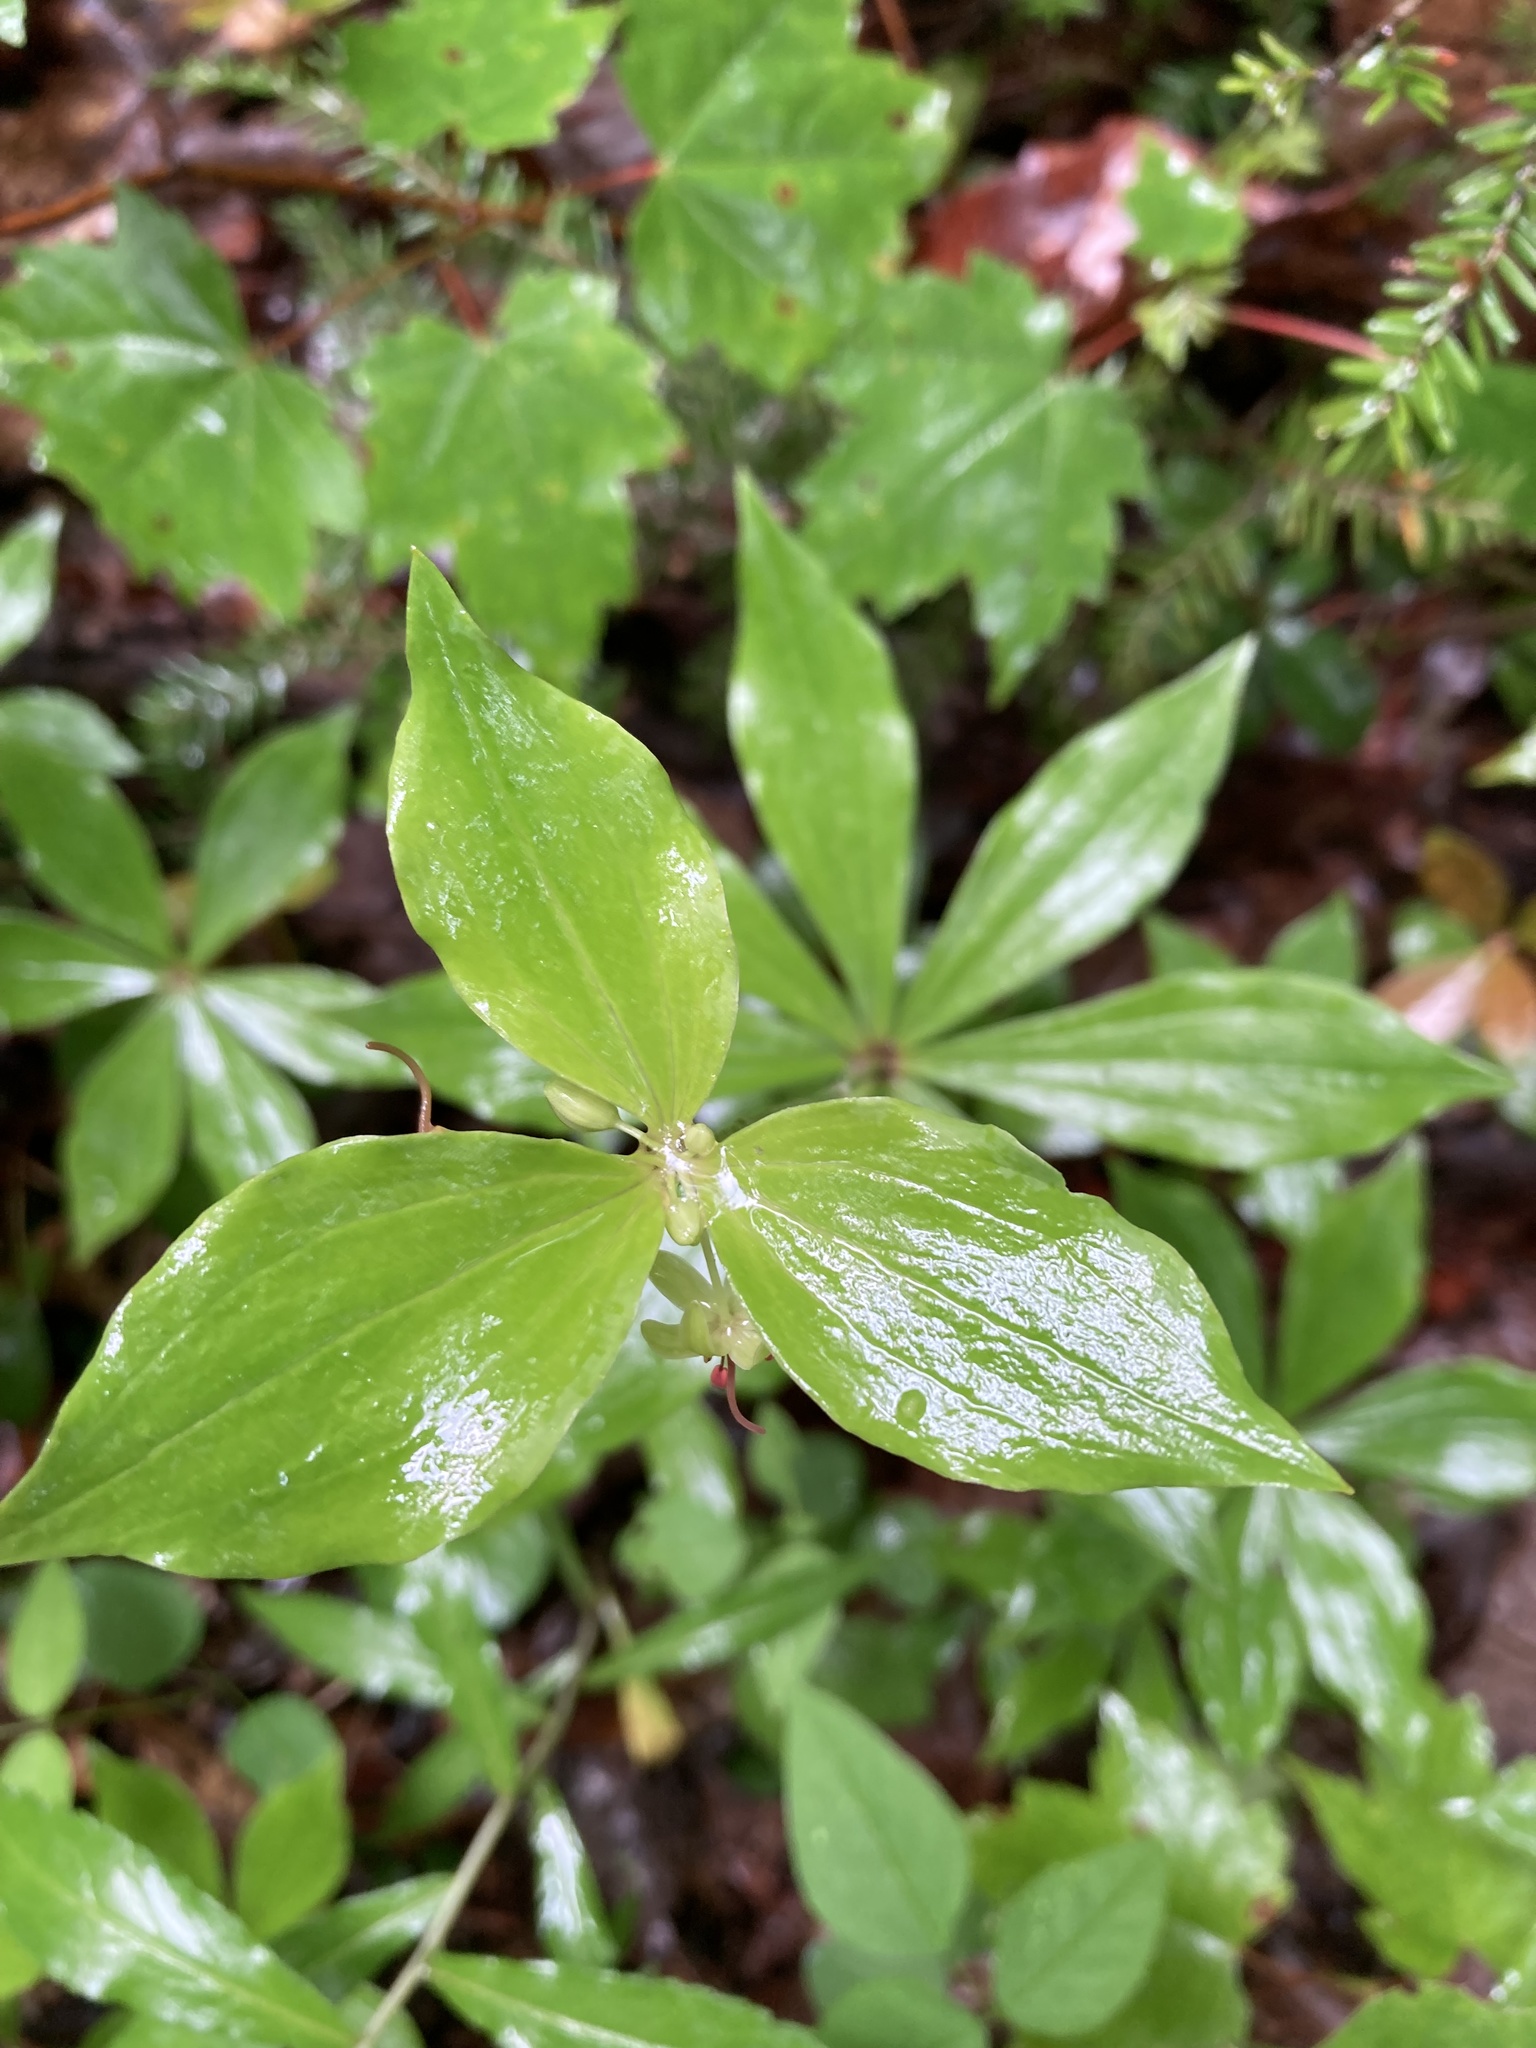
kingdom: Plantae
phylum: Tracheophyta
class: Liliopsida
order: Liliales
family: Liliaceae
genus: Medeola
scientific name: Medeola virginiana
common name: Indian cucumber-root
